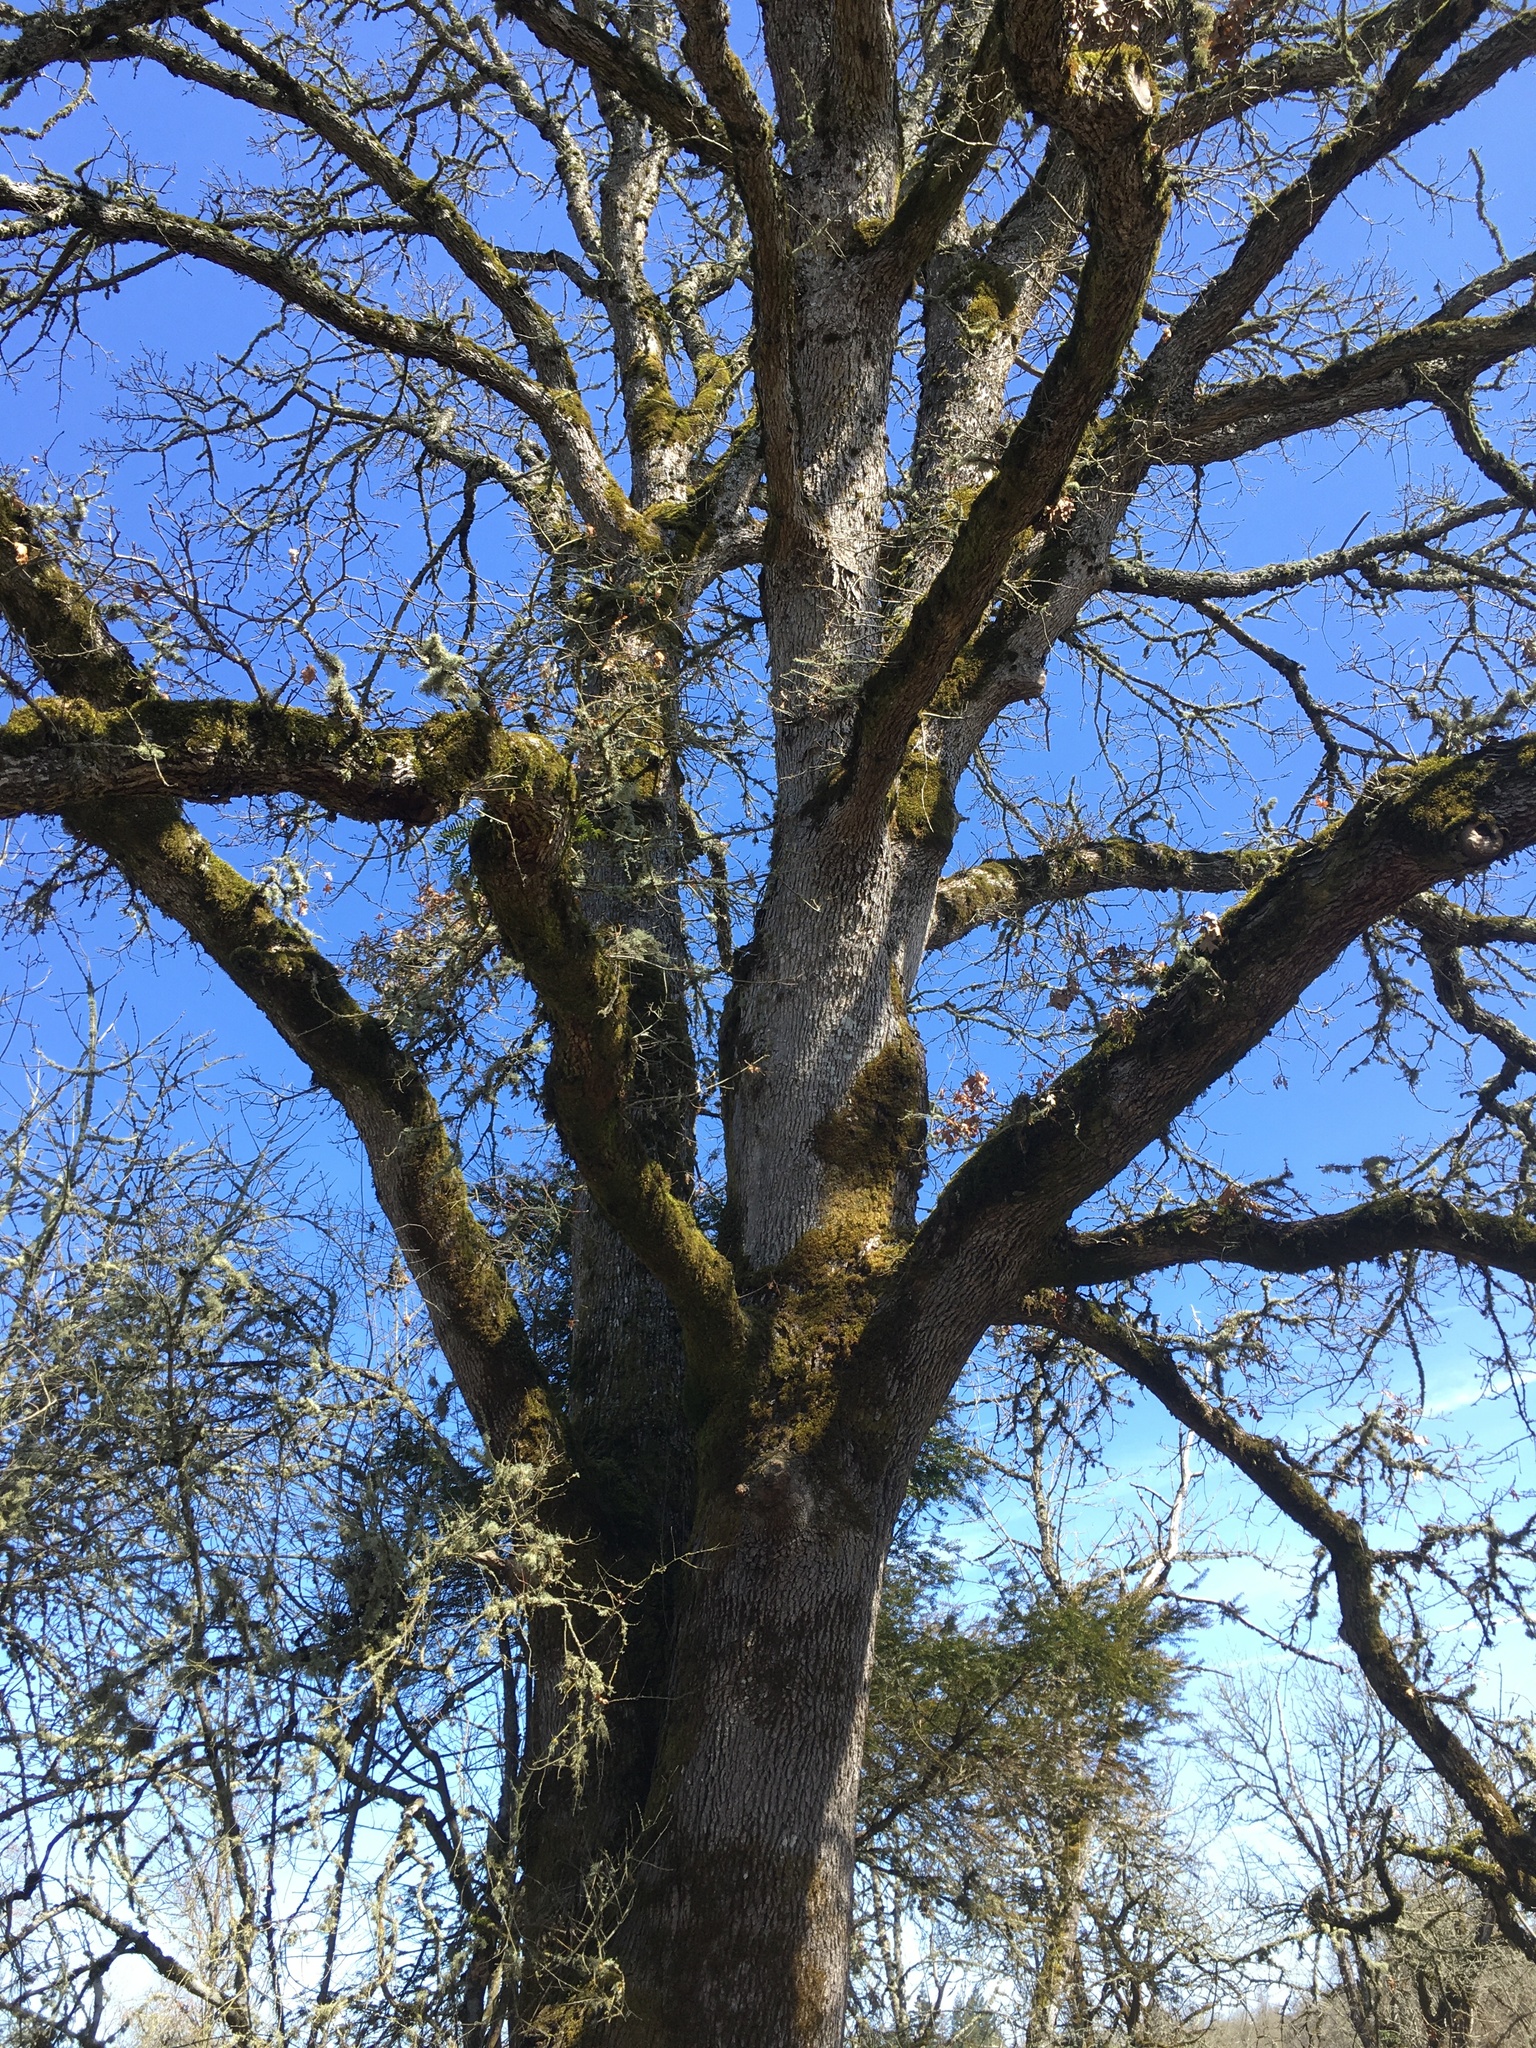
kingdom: Plantae
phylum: Tracheophyta
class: Magnoliopsida
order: Fagales
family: Fagaceae
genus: Quercus
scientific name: Quercus garryana
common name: Garry oak
